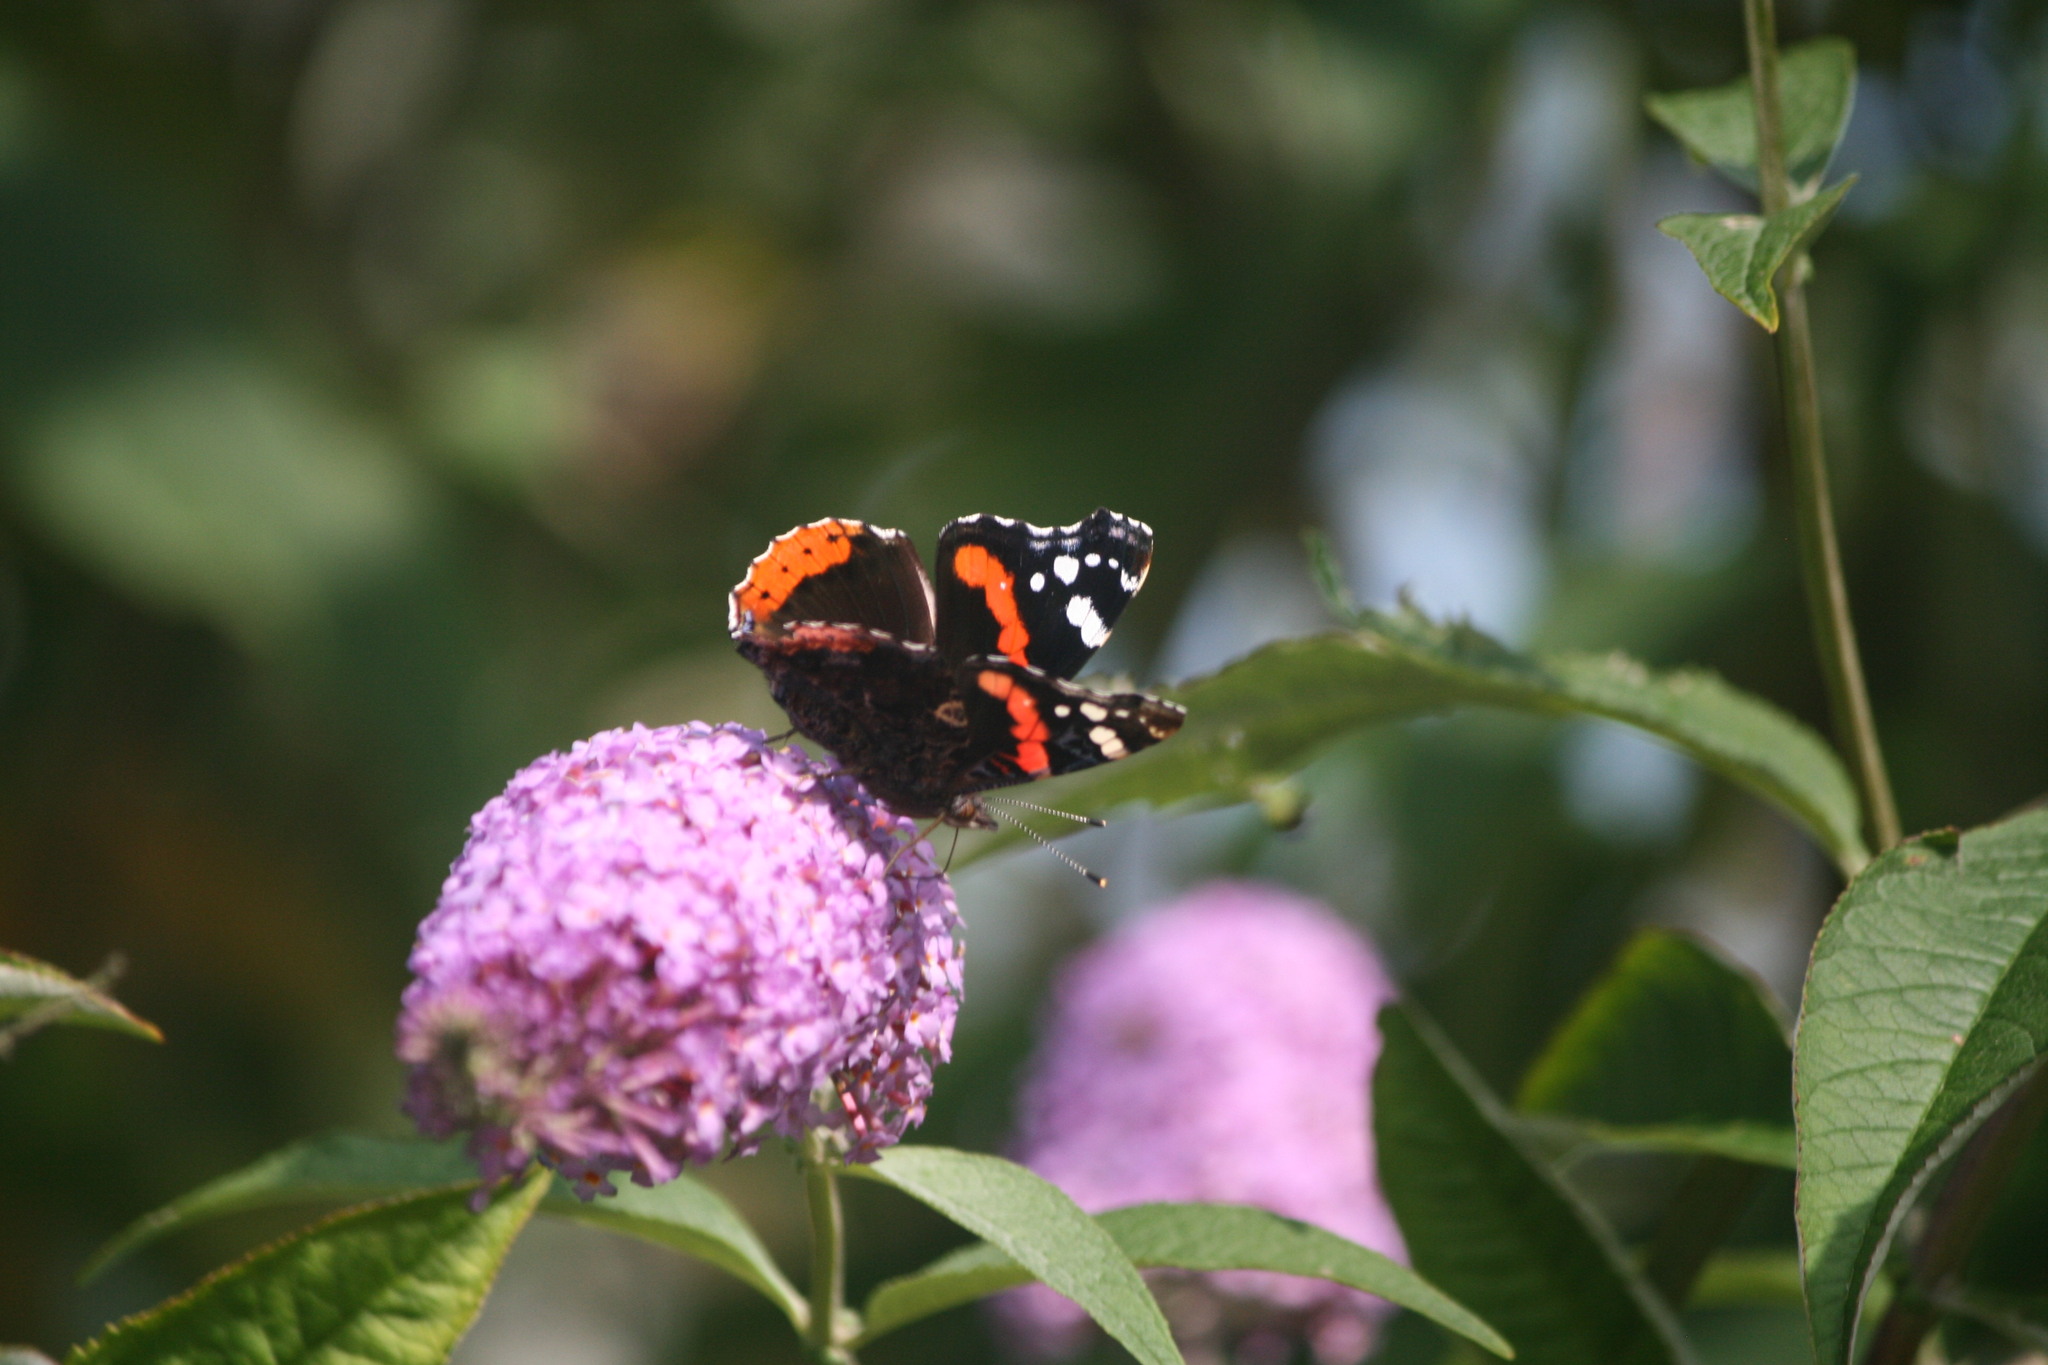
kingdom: Animalia
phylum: Arthropoda
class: Insecta
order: Lepidoptera
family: Nymphalidae
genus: Vanessa
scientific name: Vanessa atalanta
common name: Red admiral
